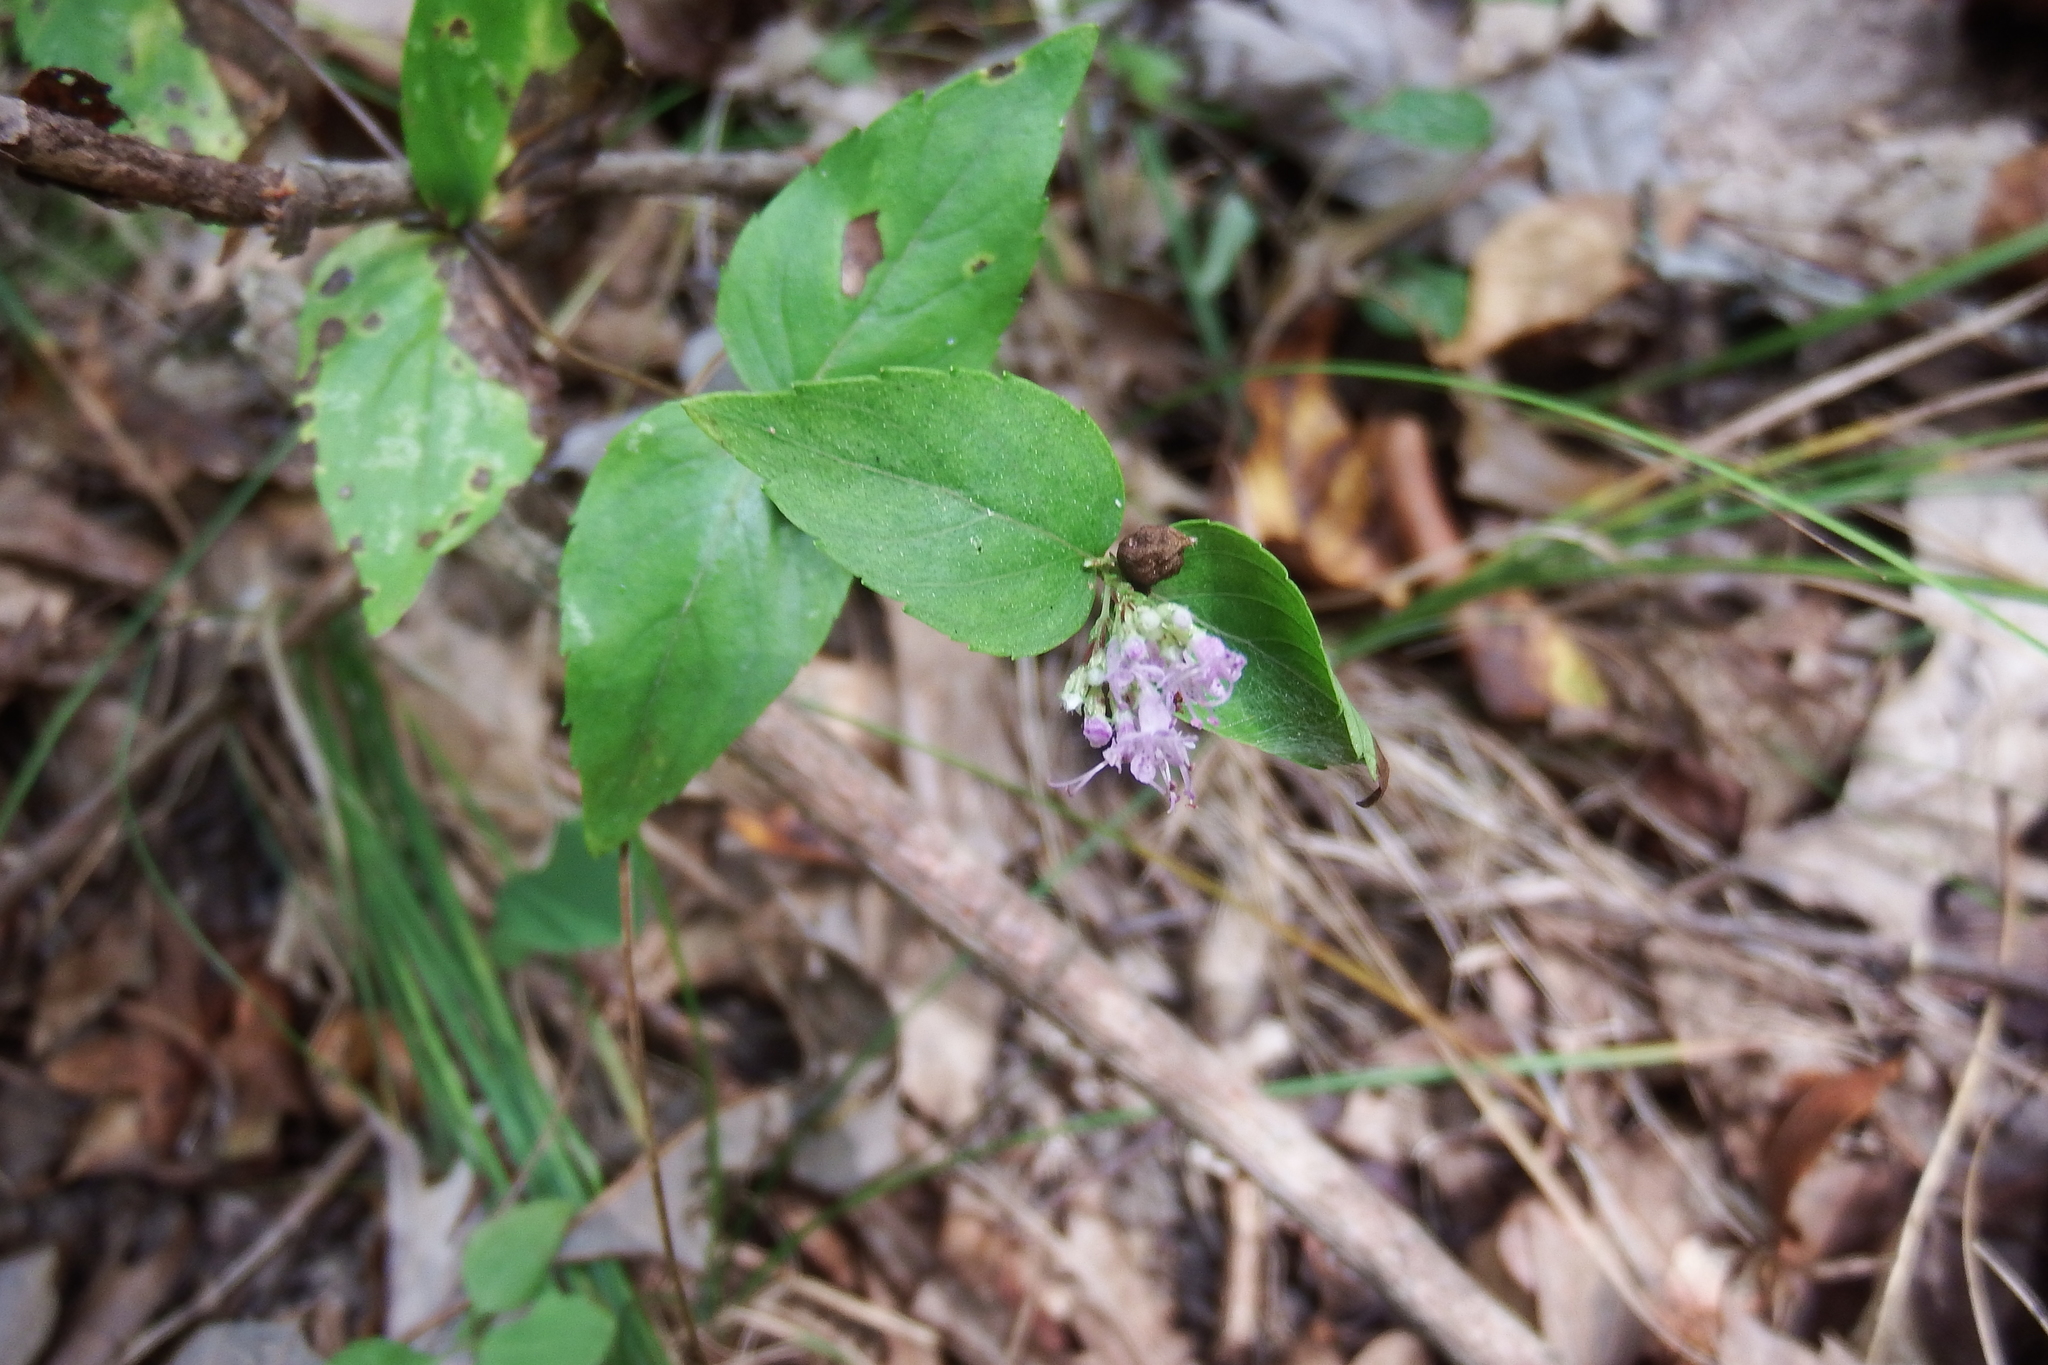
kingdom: Plantae
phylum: Tracheophyta
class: Magnoliopsida
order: Lamiales
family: Lamiaceae
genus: Cunila
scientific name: Cunila origanoides
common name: American dittany
